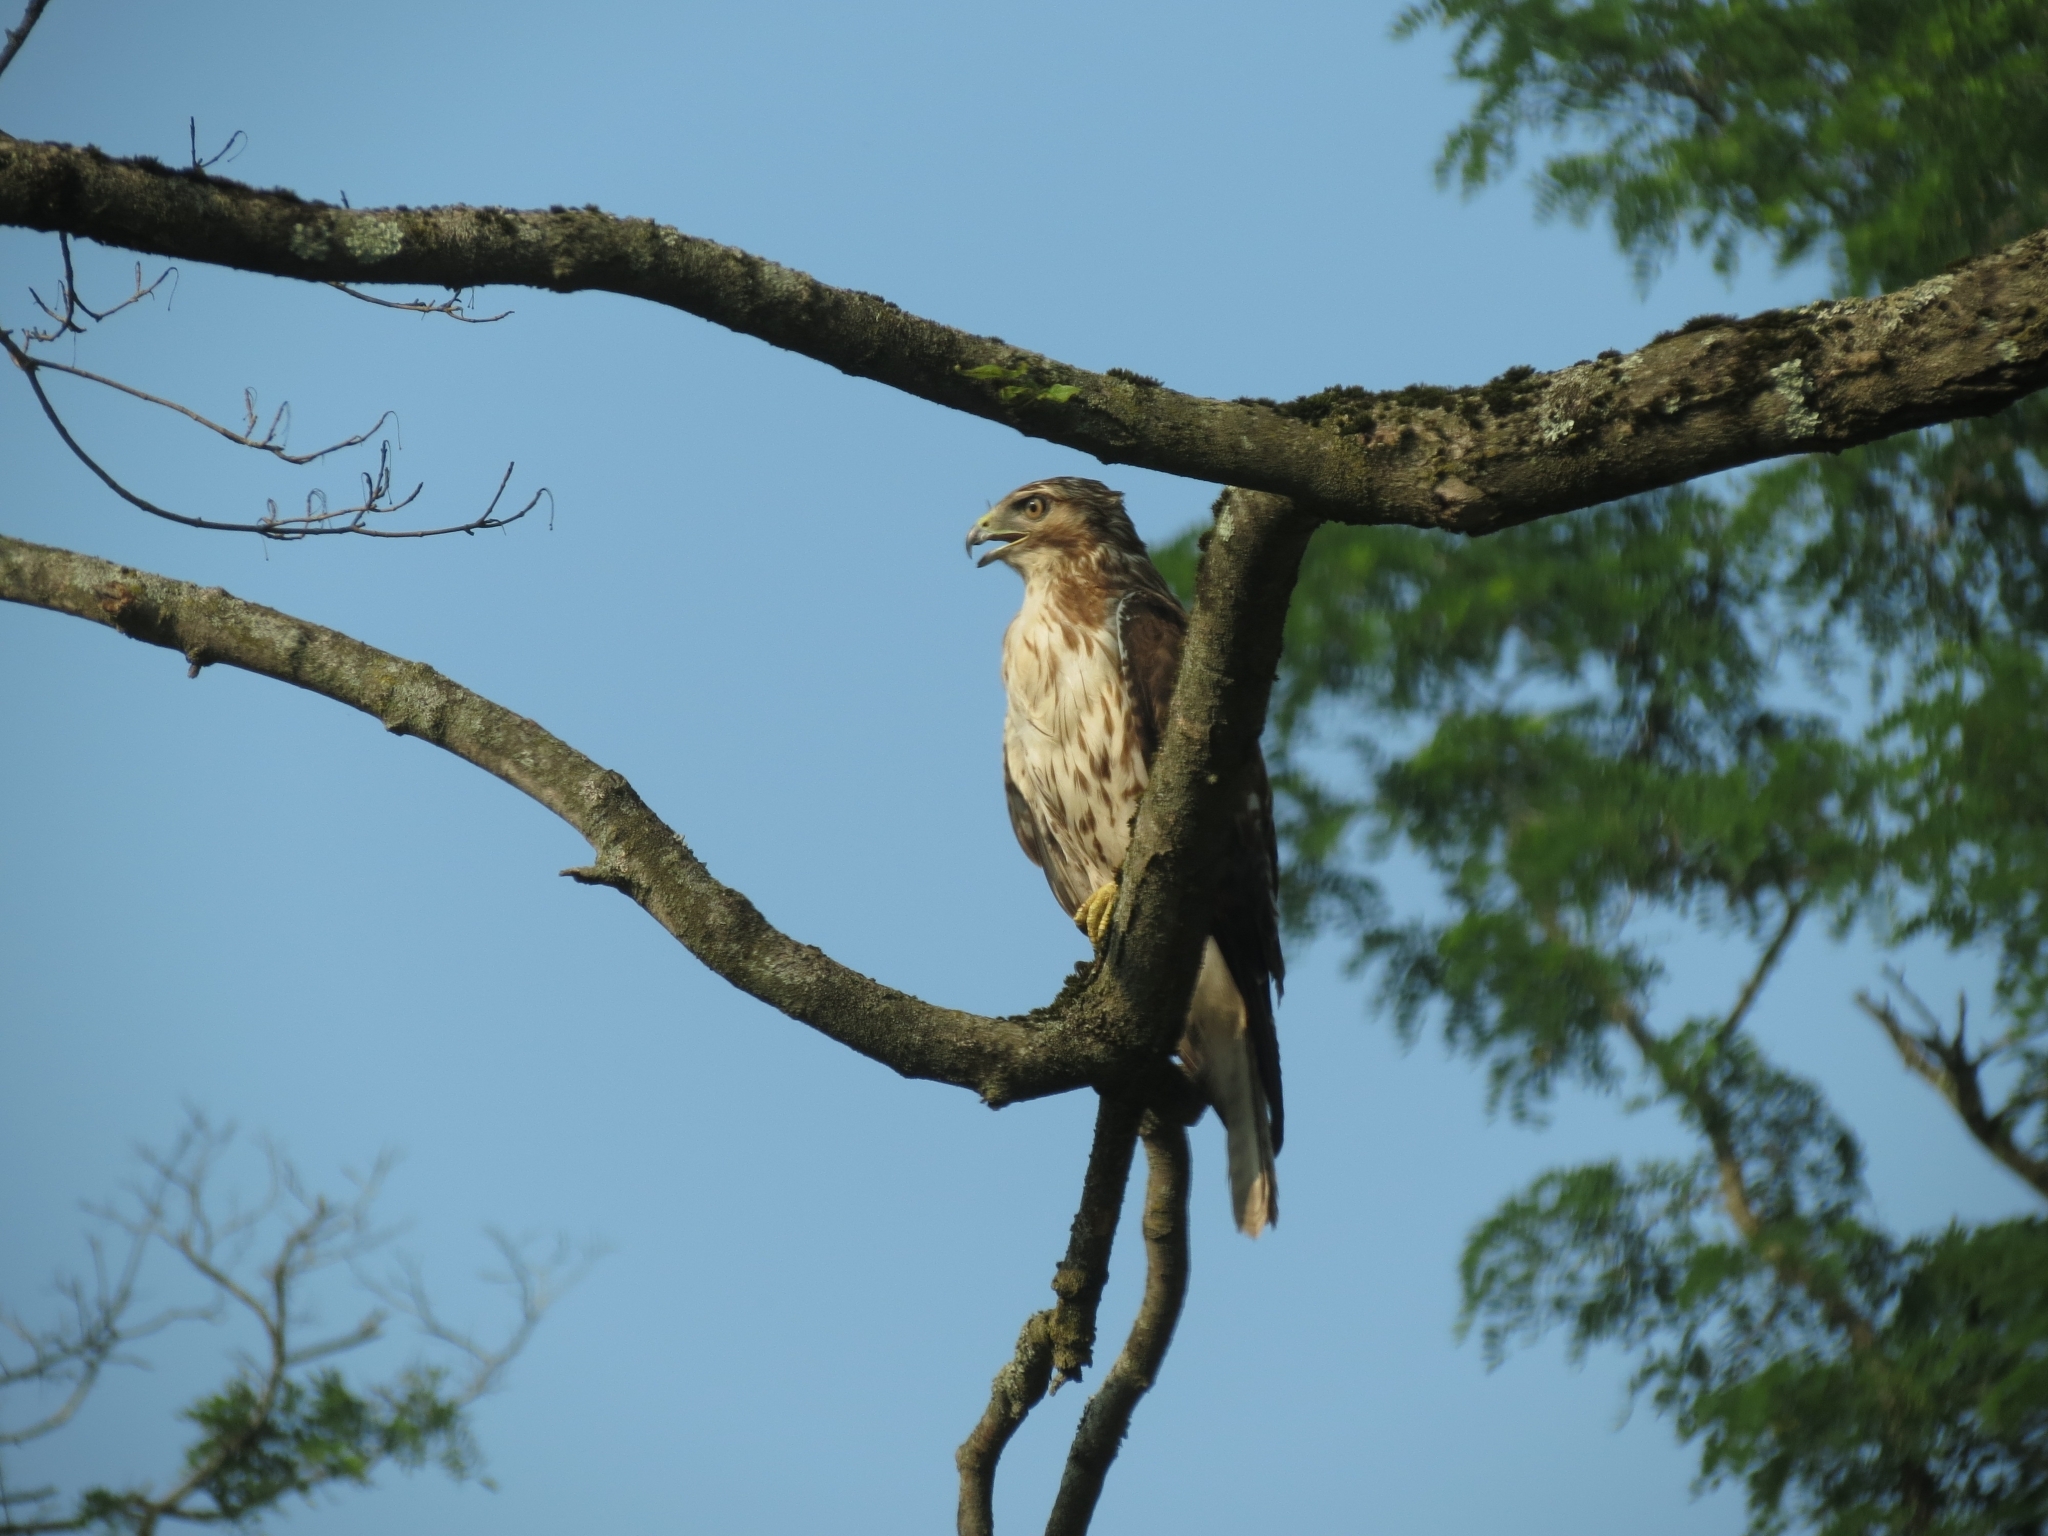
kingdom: Animalia
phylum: Chordata
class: Aves
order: Accipitriformes
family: Accipitridae
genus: Buteo
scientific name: Buteo jamaicensis
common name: Red-tailed hawk
